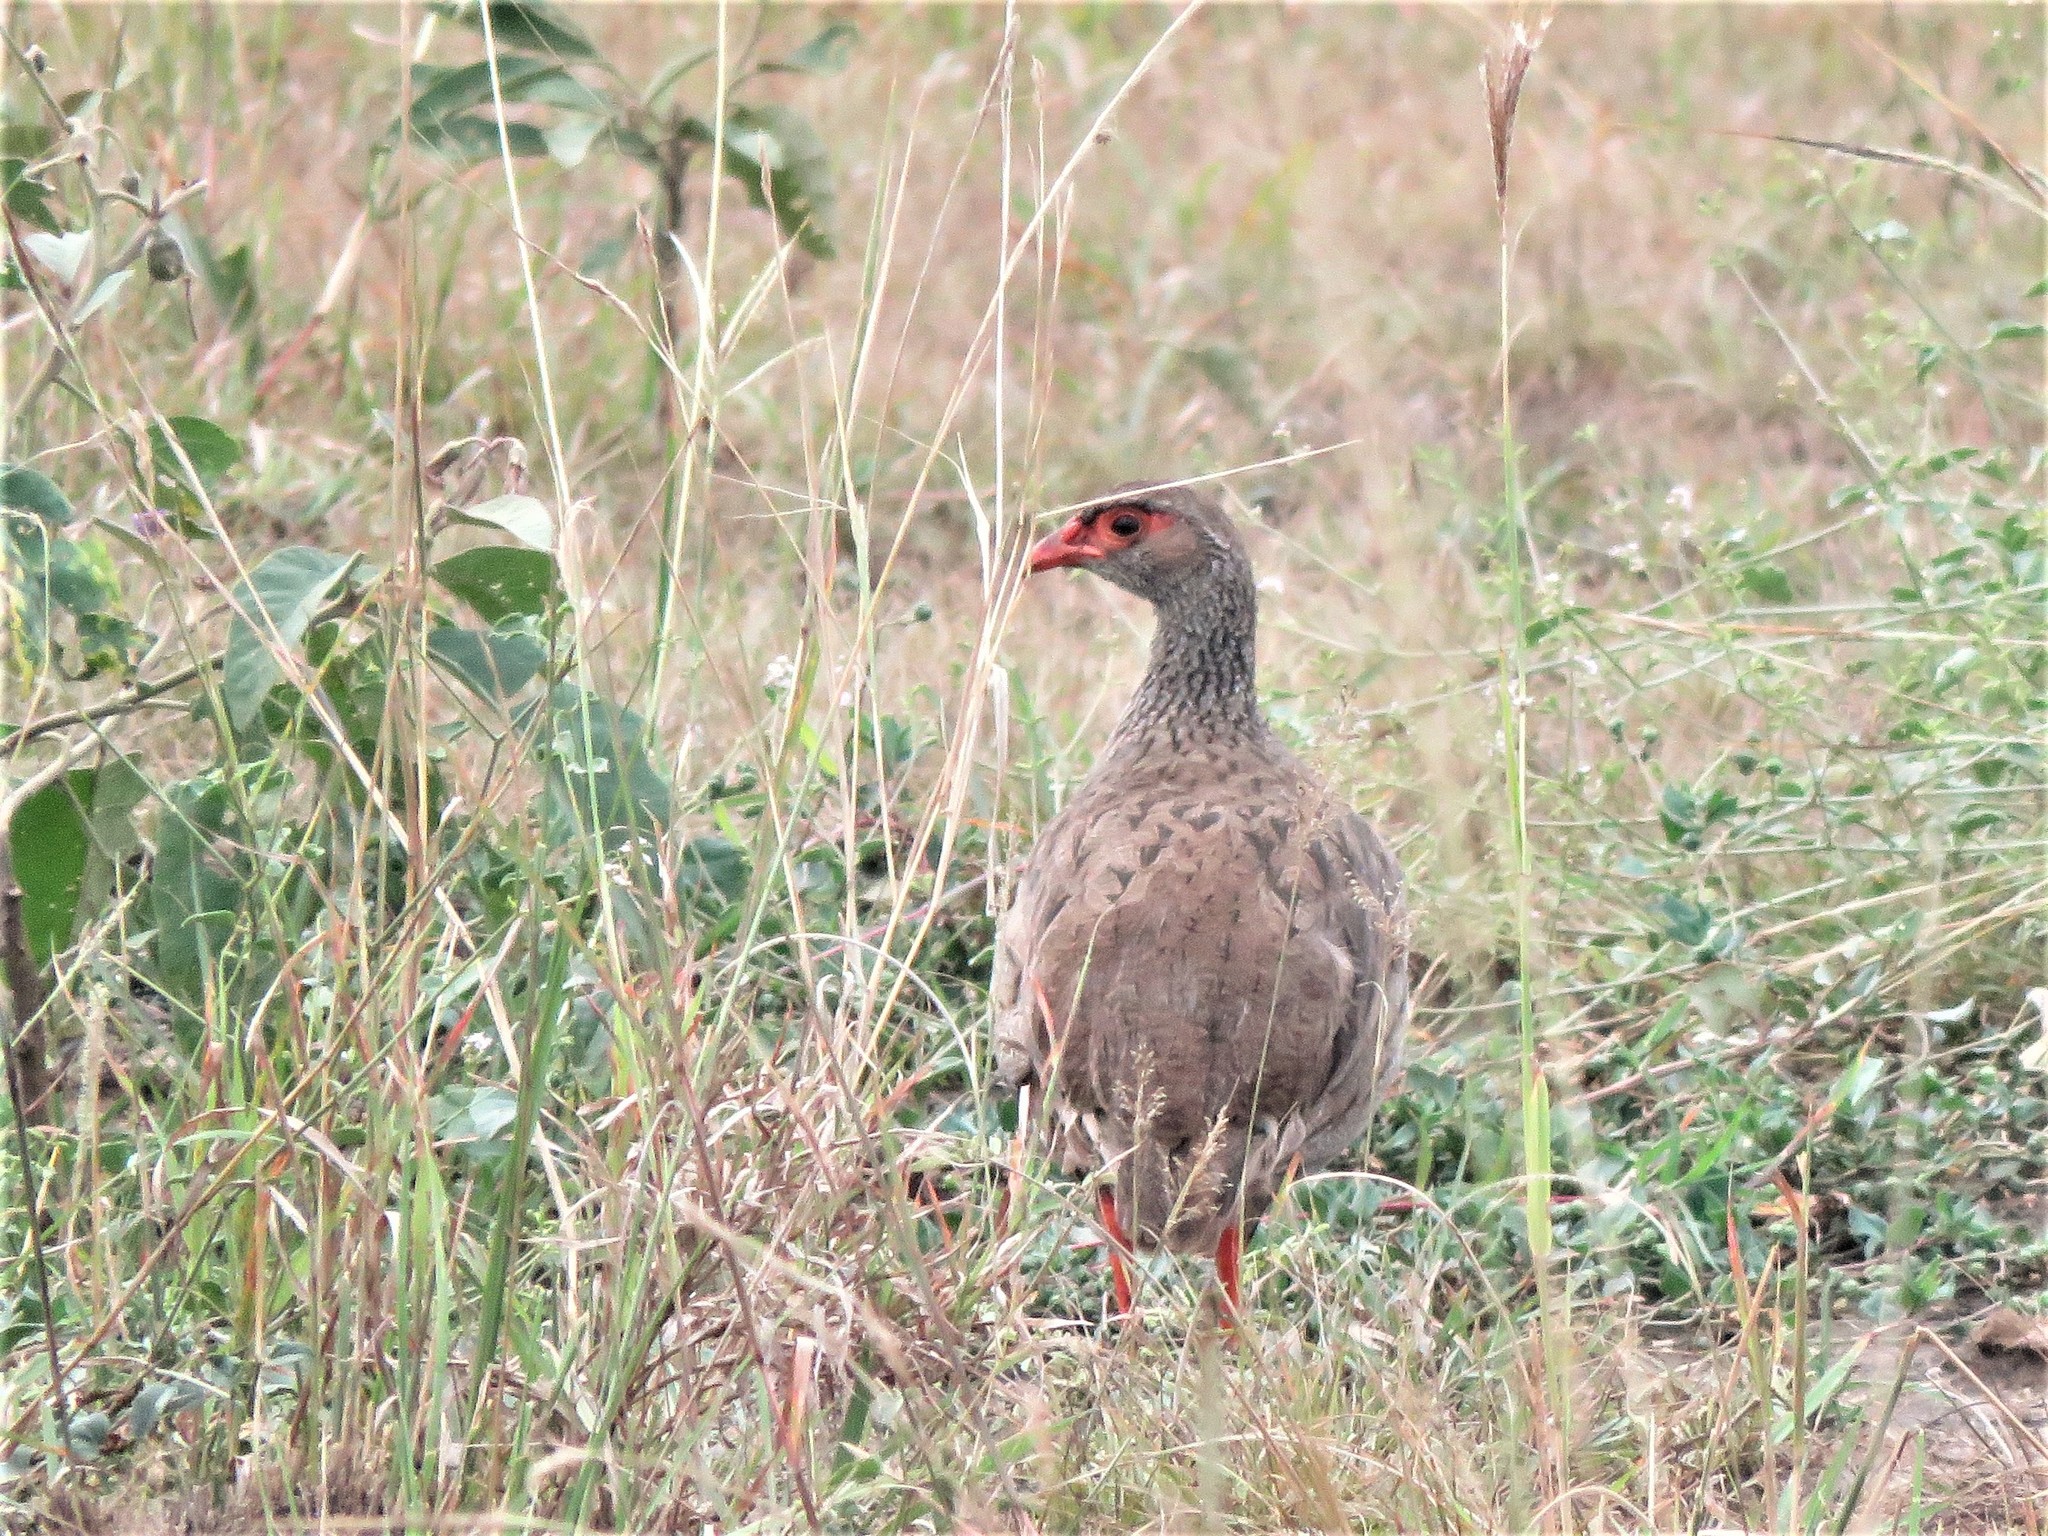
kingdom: Animalia
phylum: Chordata
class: Aves
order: Galliformes
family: Phasianidae
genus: Pternistis
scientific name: Pternistis afer
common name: Red-necked spurfowl
